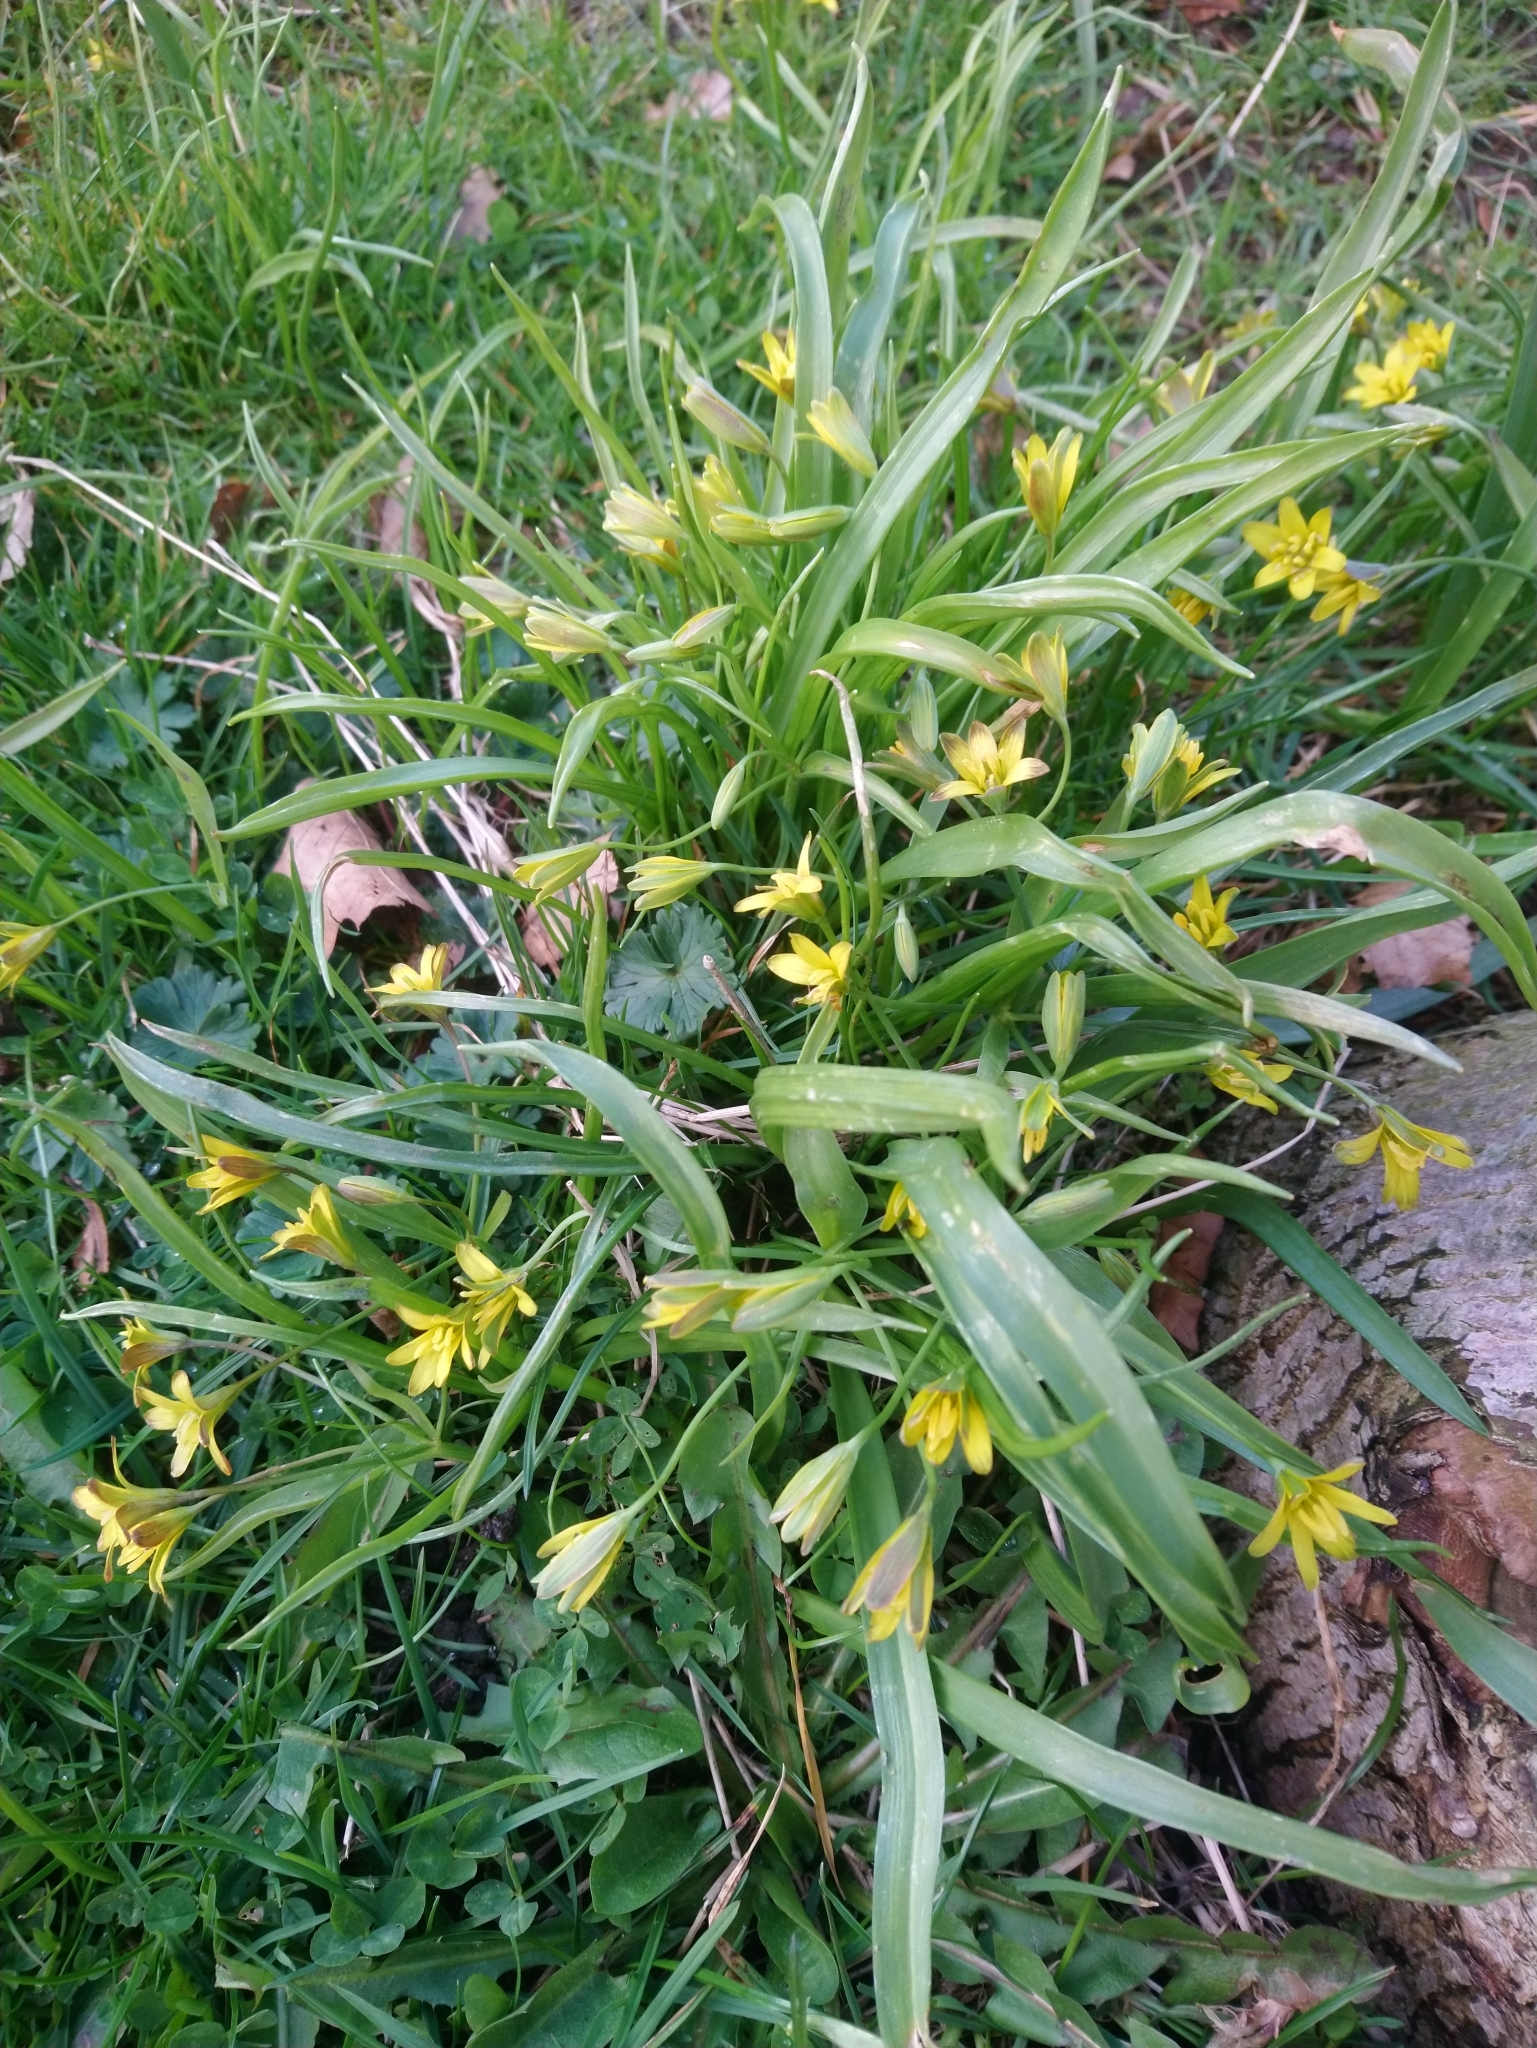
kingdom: Plantae
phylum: Tracheophyta
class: Liliopsida
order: Liliales
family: Liliaceae
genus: Gagea
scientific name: Gagea lutea
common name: Yellow star-of-bethlehem
